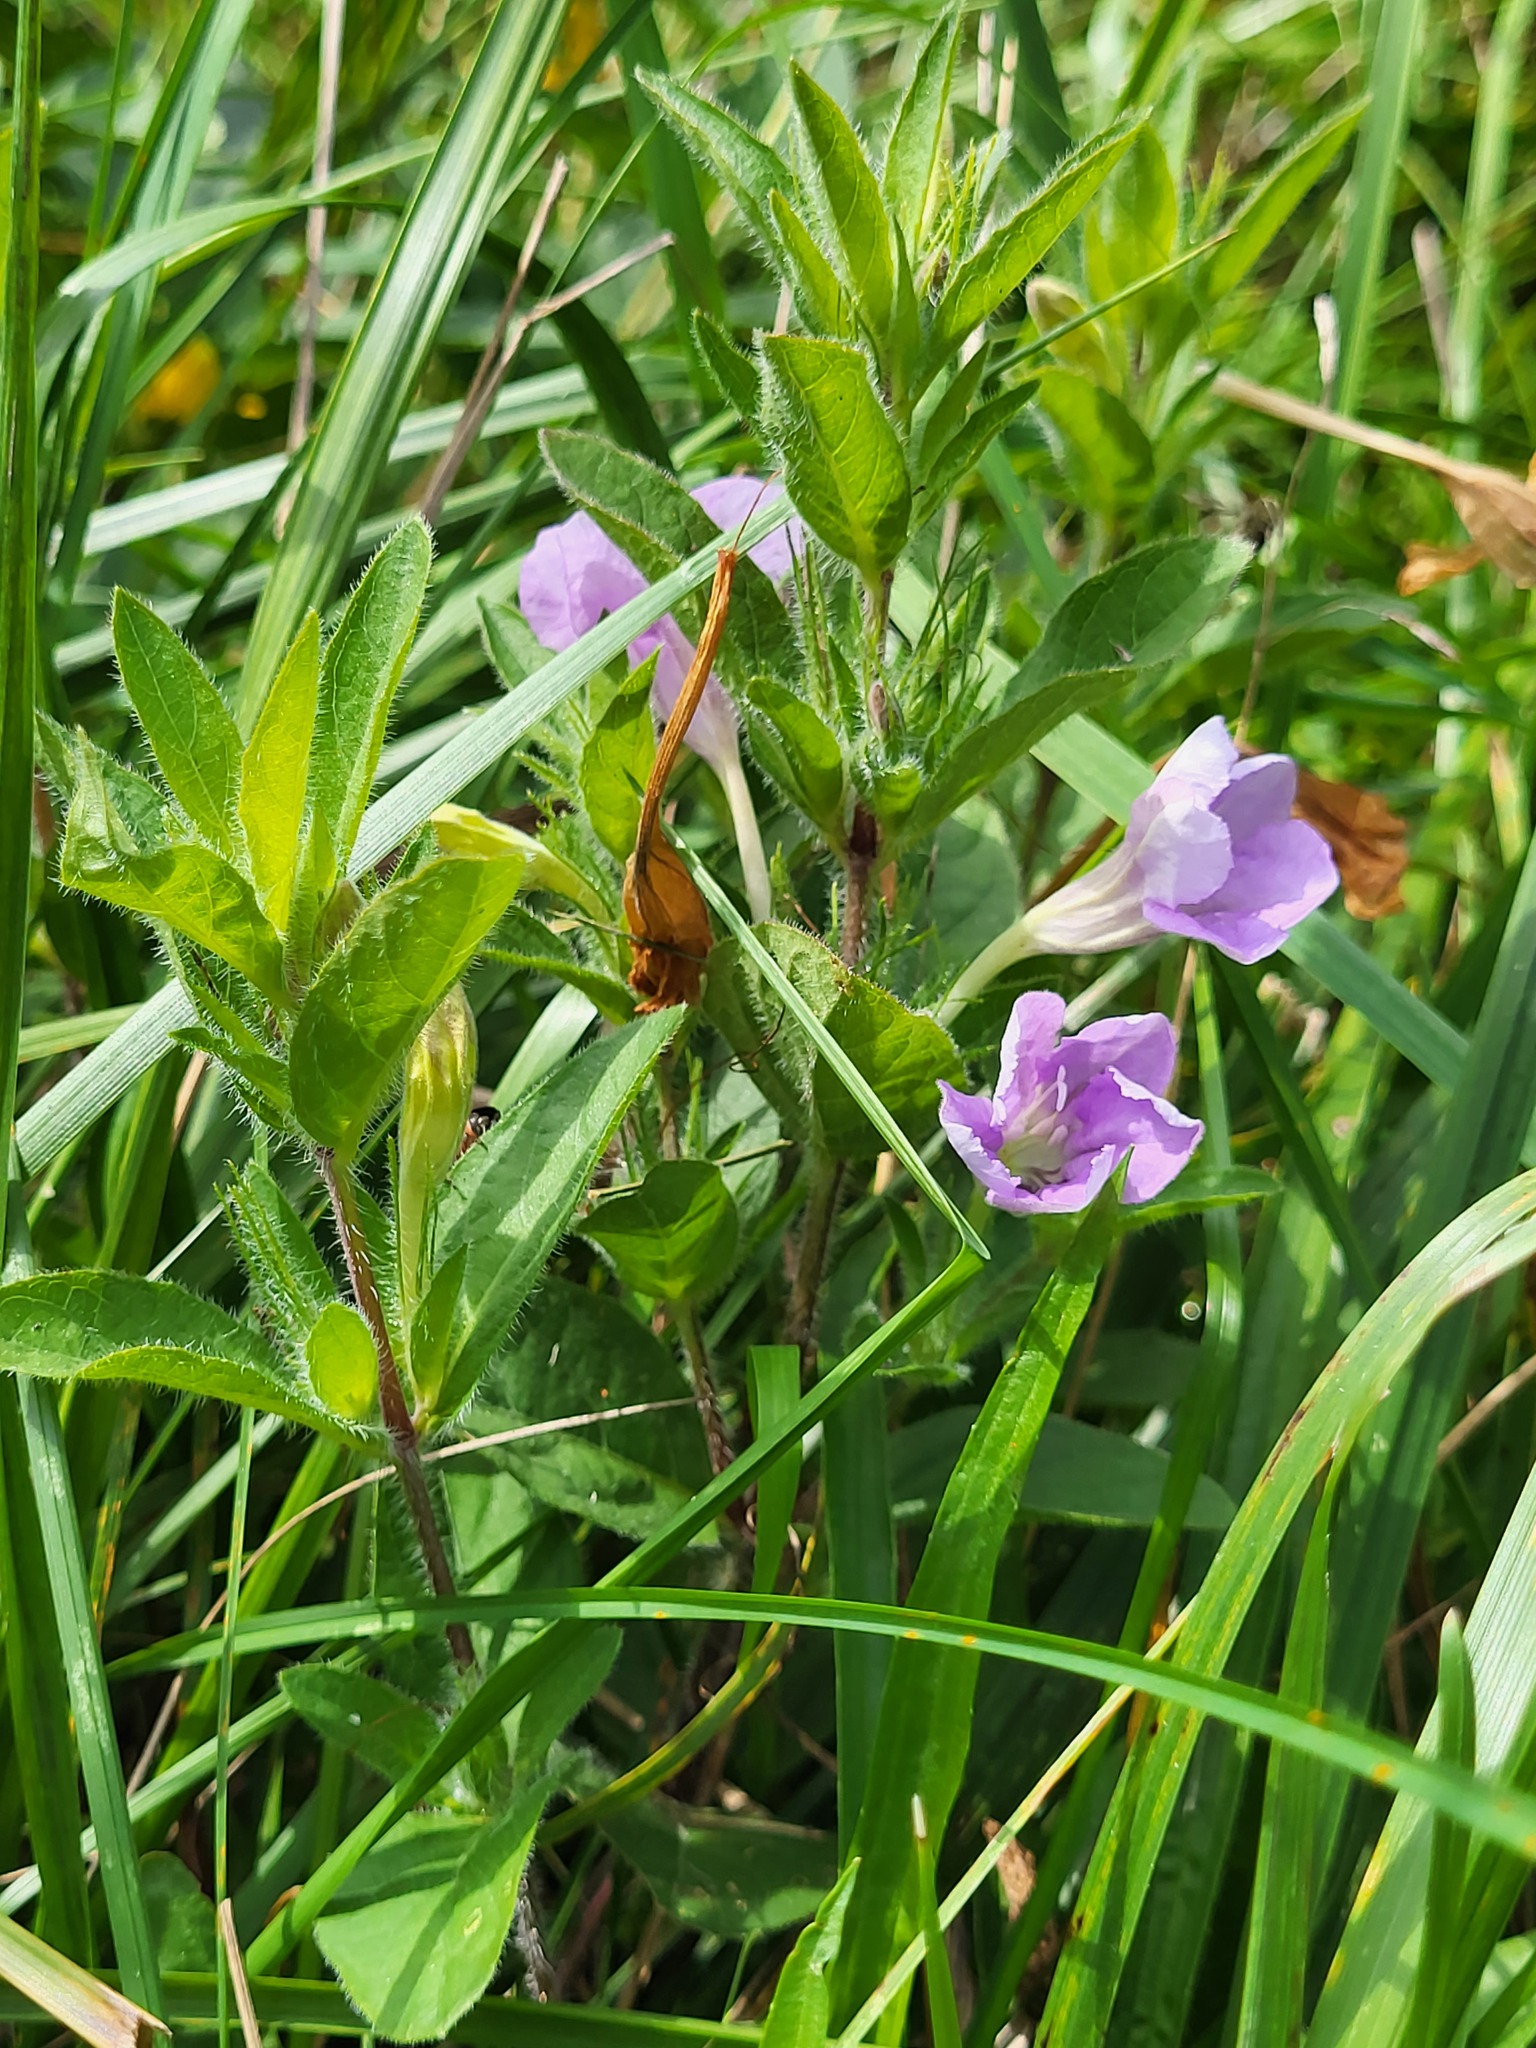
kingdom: Plantae
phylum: Tracheophyta
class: Magnoliopsida
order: Lamiales
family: Acanthaceae
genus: Ruellia
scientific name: Ruellia humilis
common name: Fringe-leaf ruellia
